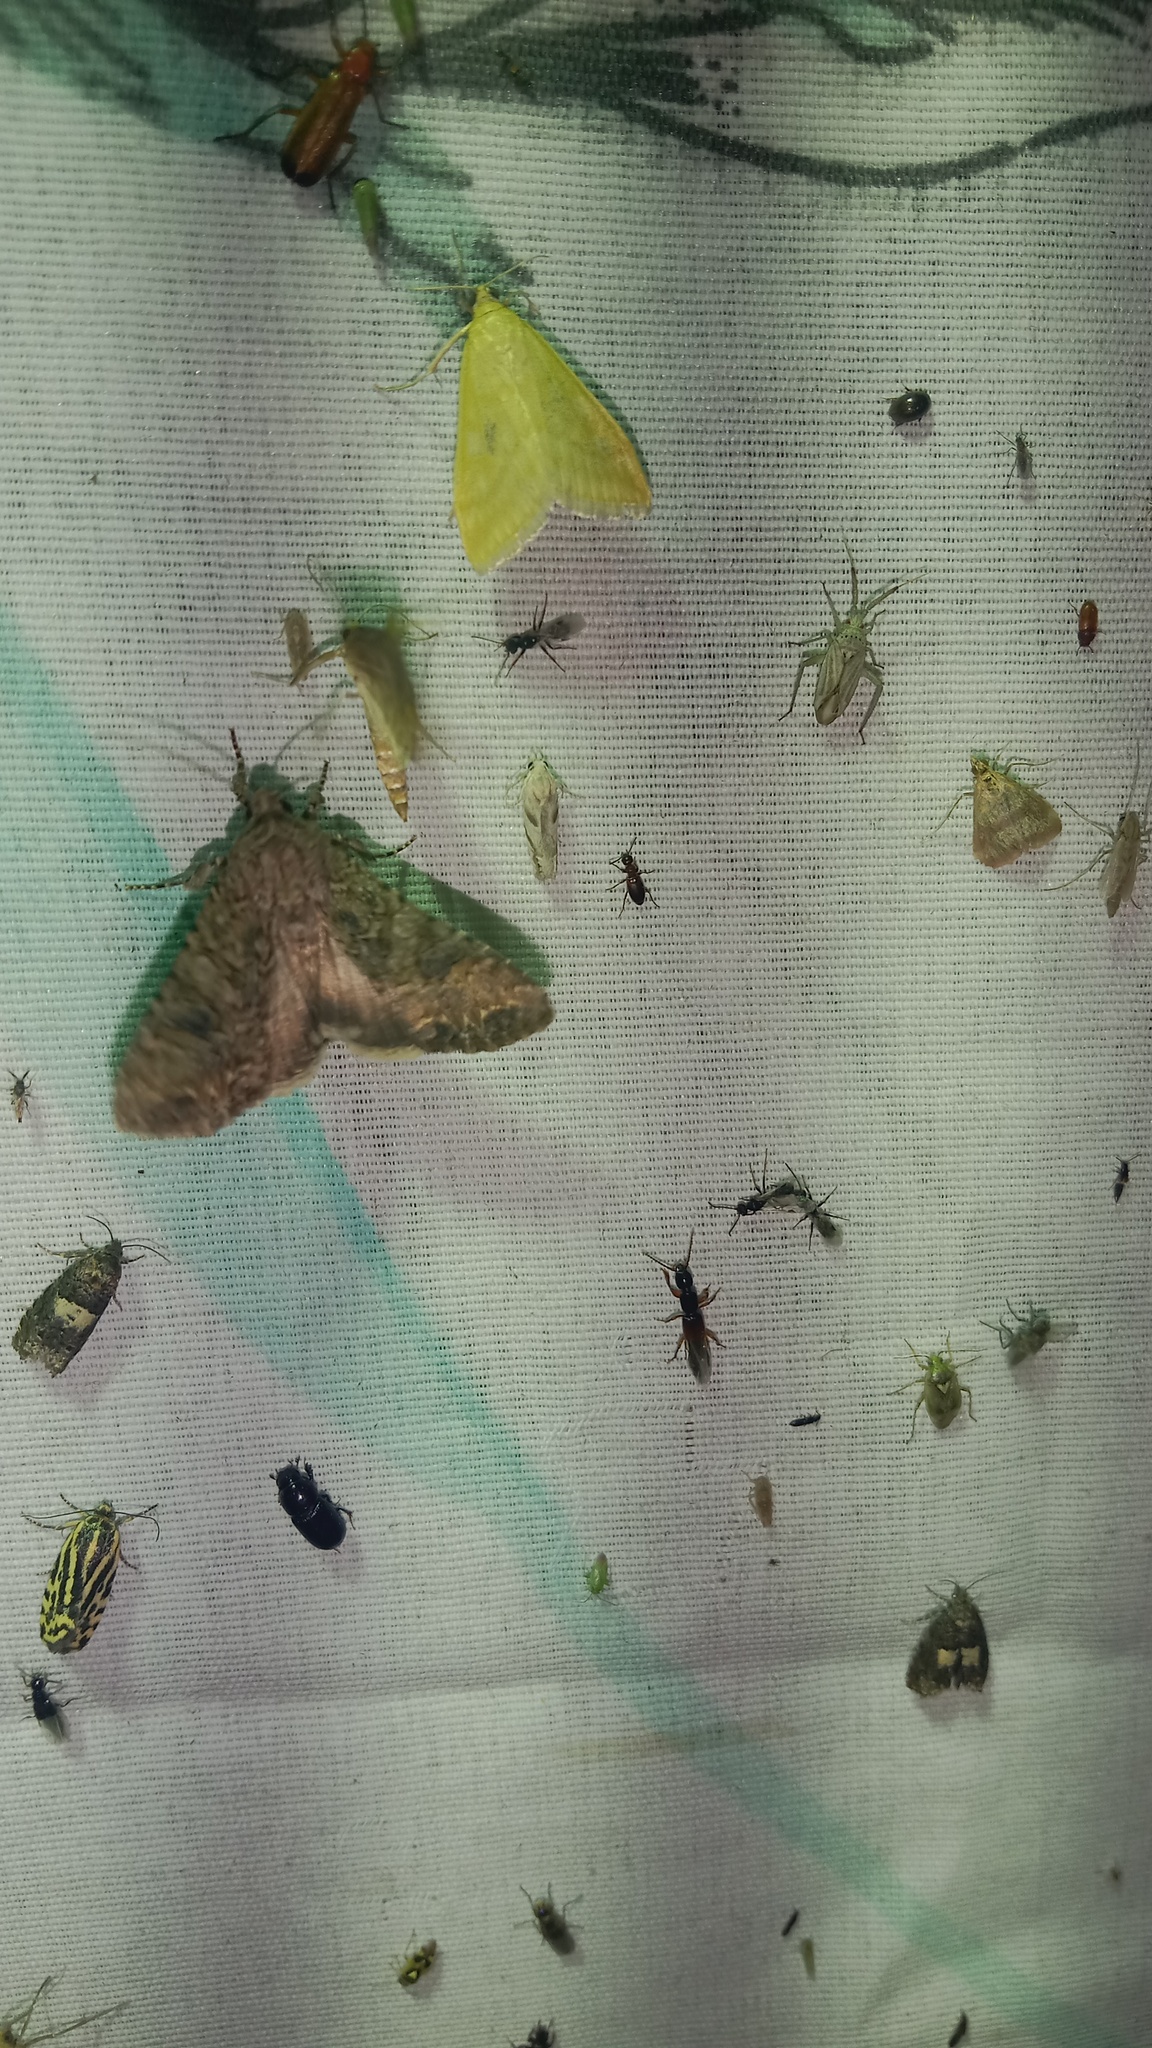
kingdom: Animalia
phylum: Arthropoda
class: Insecta
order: Lepidoptera
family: Noctuidae
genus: Anarta
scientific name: Anarta trifolii
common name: Clover cutworm moth
